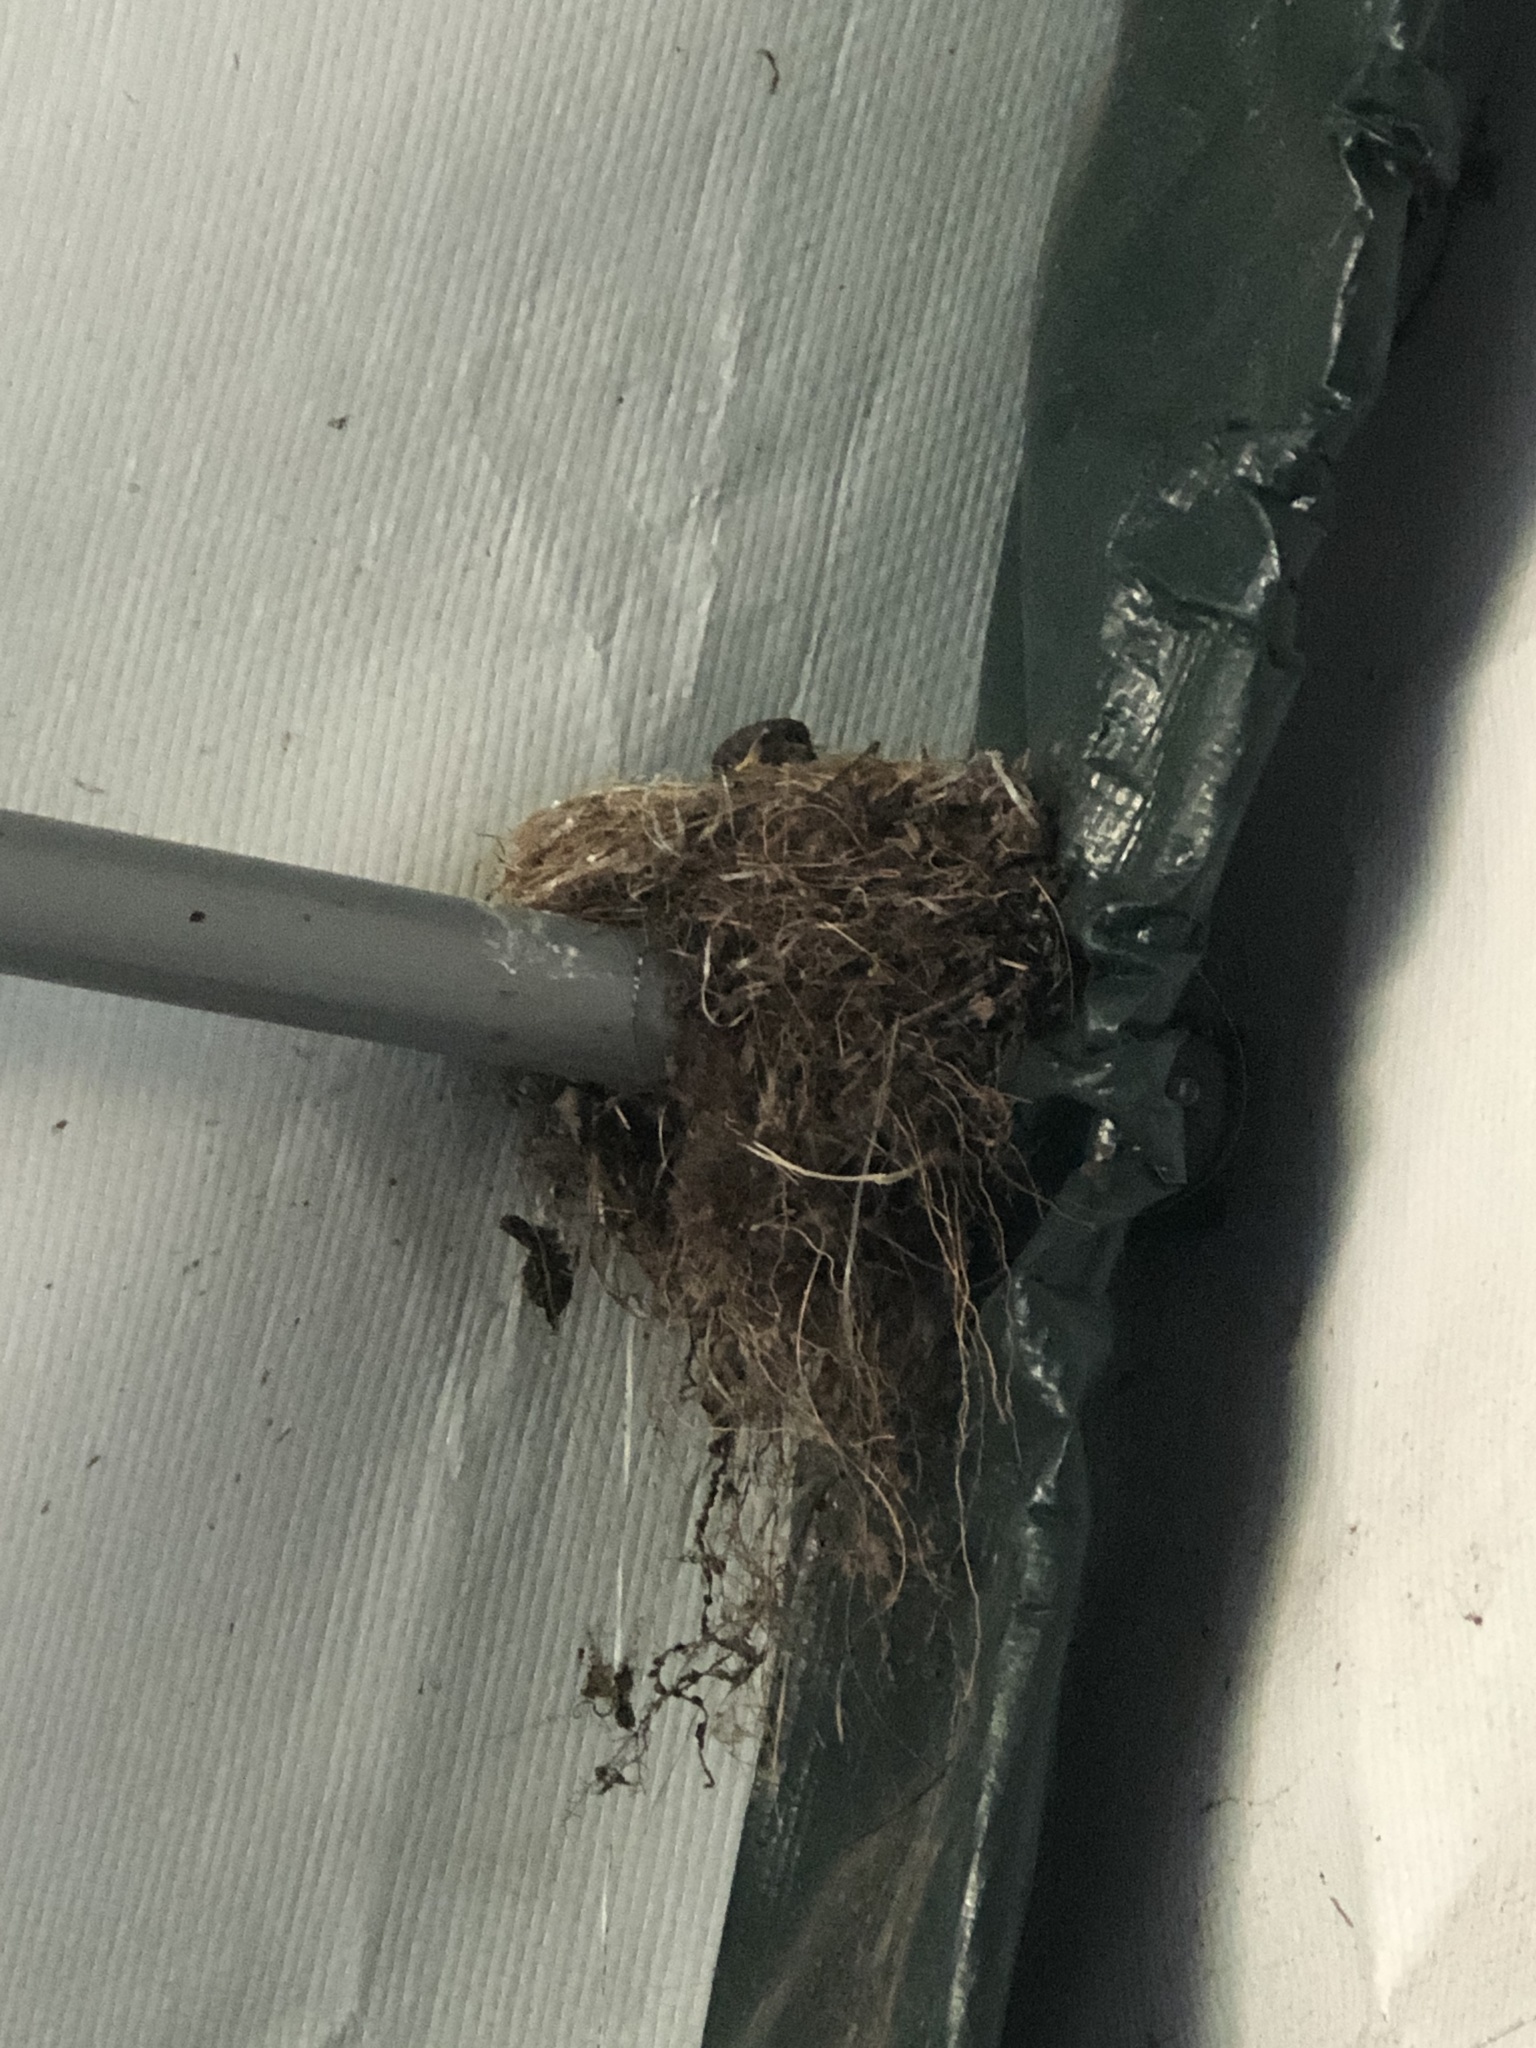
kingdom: Animalia
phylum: Chordata
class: Aves
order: Passeriformes
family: Tyrannidae
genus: Sayornis
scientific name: Sayornis phoebe
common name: Eastern phoebe
